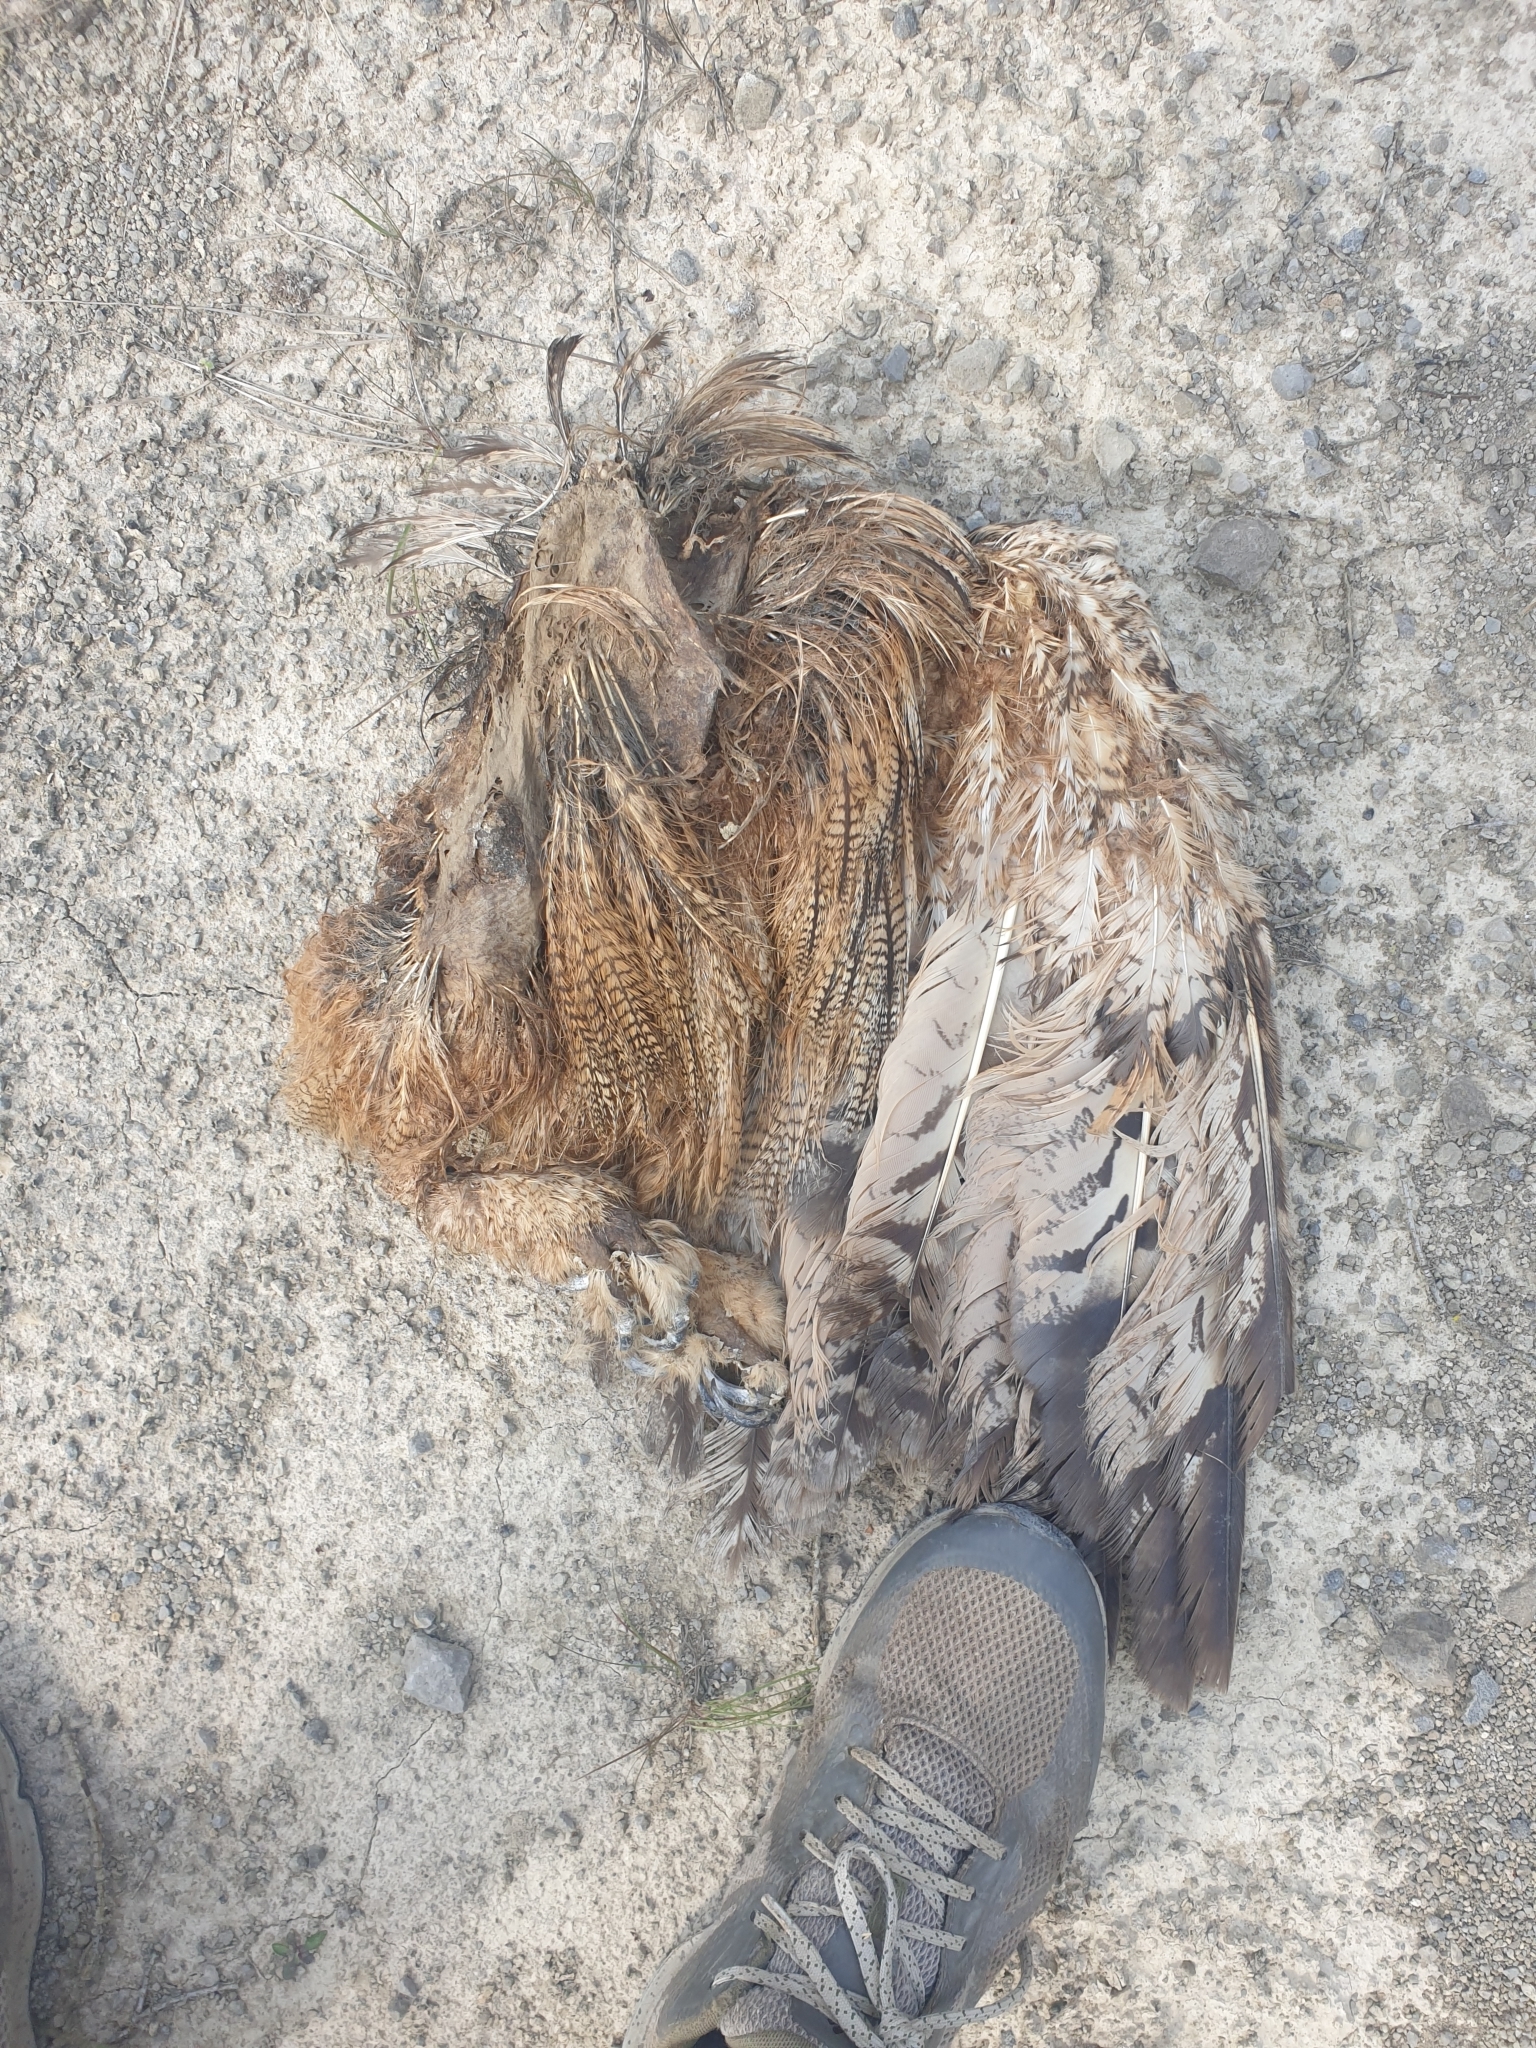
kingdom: Animalia
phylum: Chordata
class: Aves
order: Strigiformes
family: Strigidae
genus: Bubo
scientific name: Bubo bubo
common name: Eurasian eagle-owl
